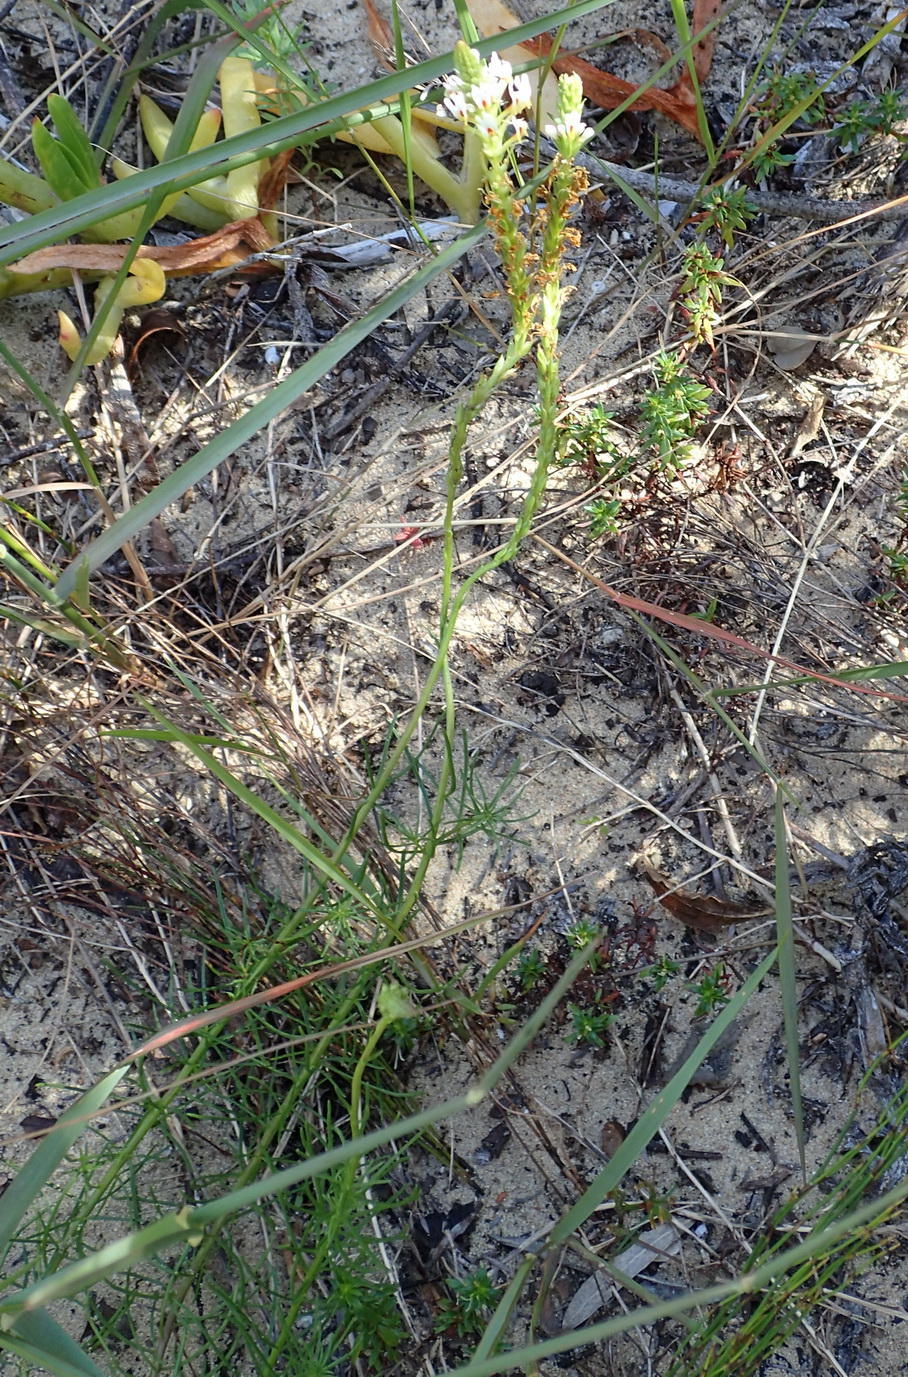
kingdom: Plantae
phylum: Tracheophyta
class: Magnoliopsida
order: Lamiales
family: Scrophulariaceae
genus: Hebenstretia
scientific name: Hebenstretia integrifolia
